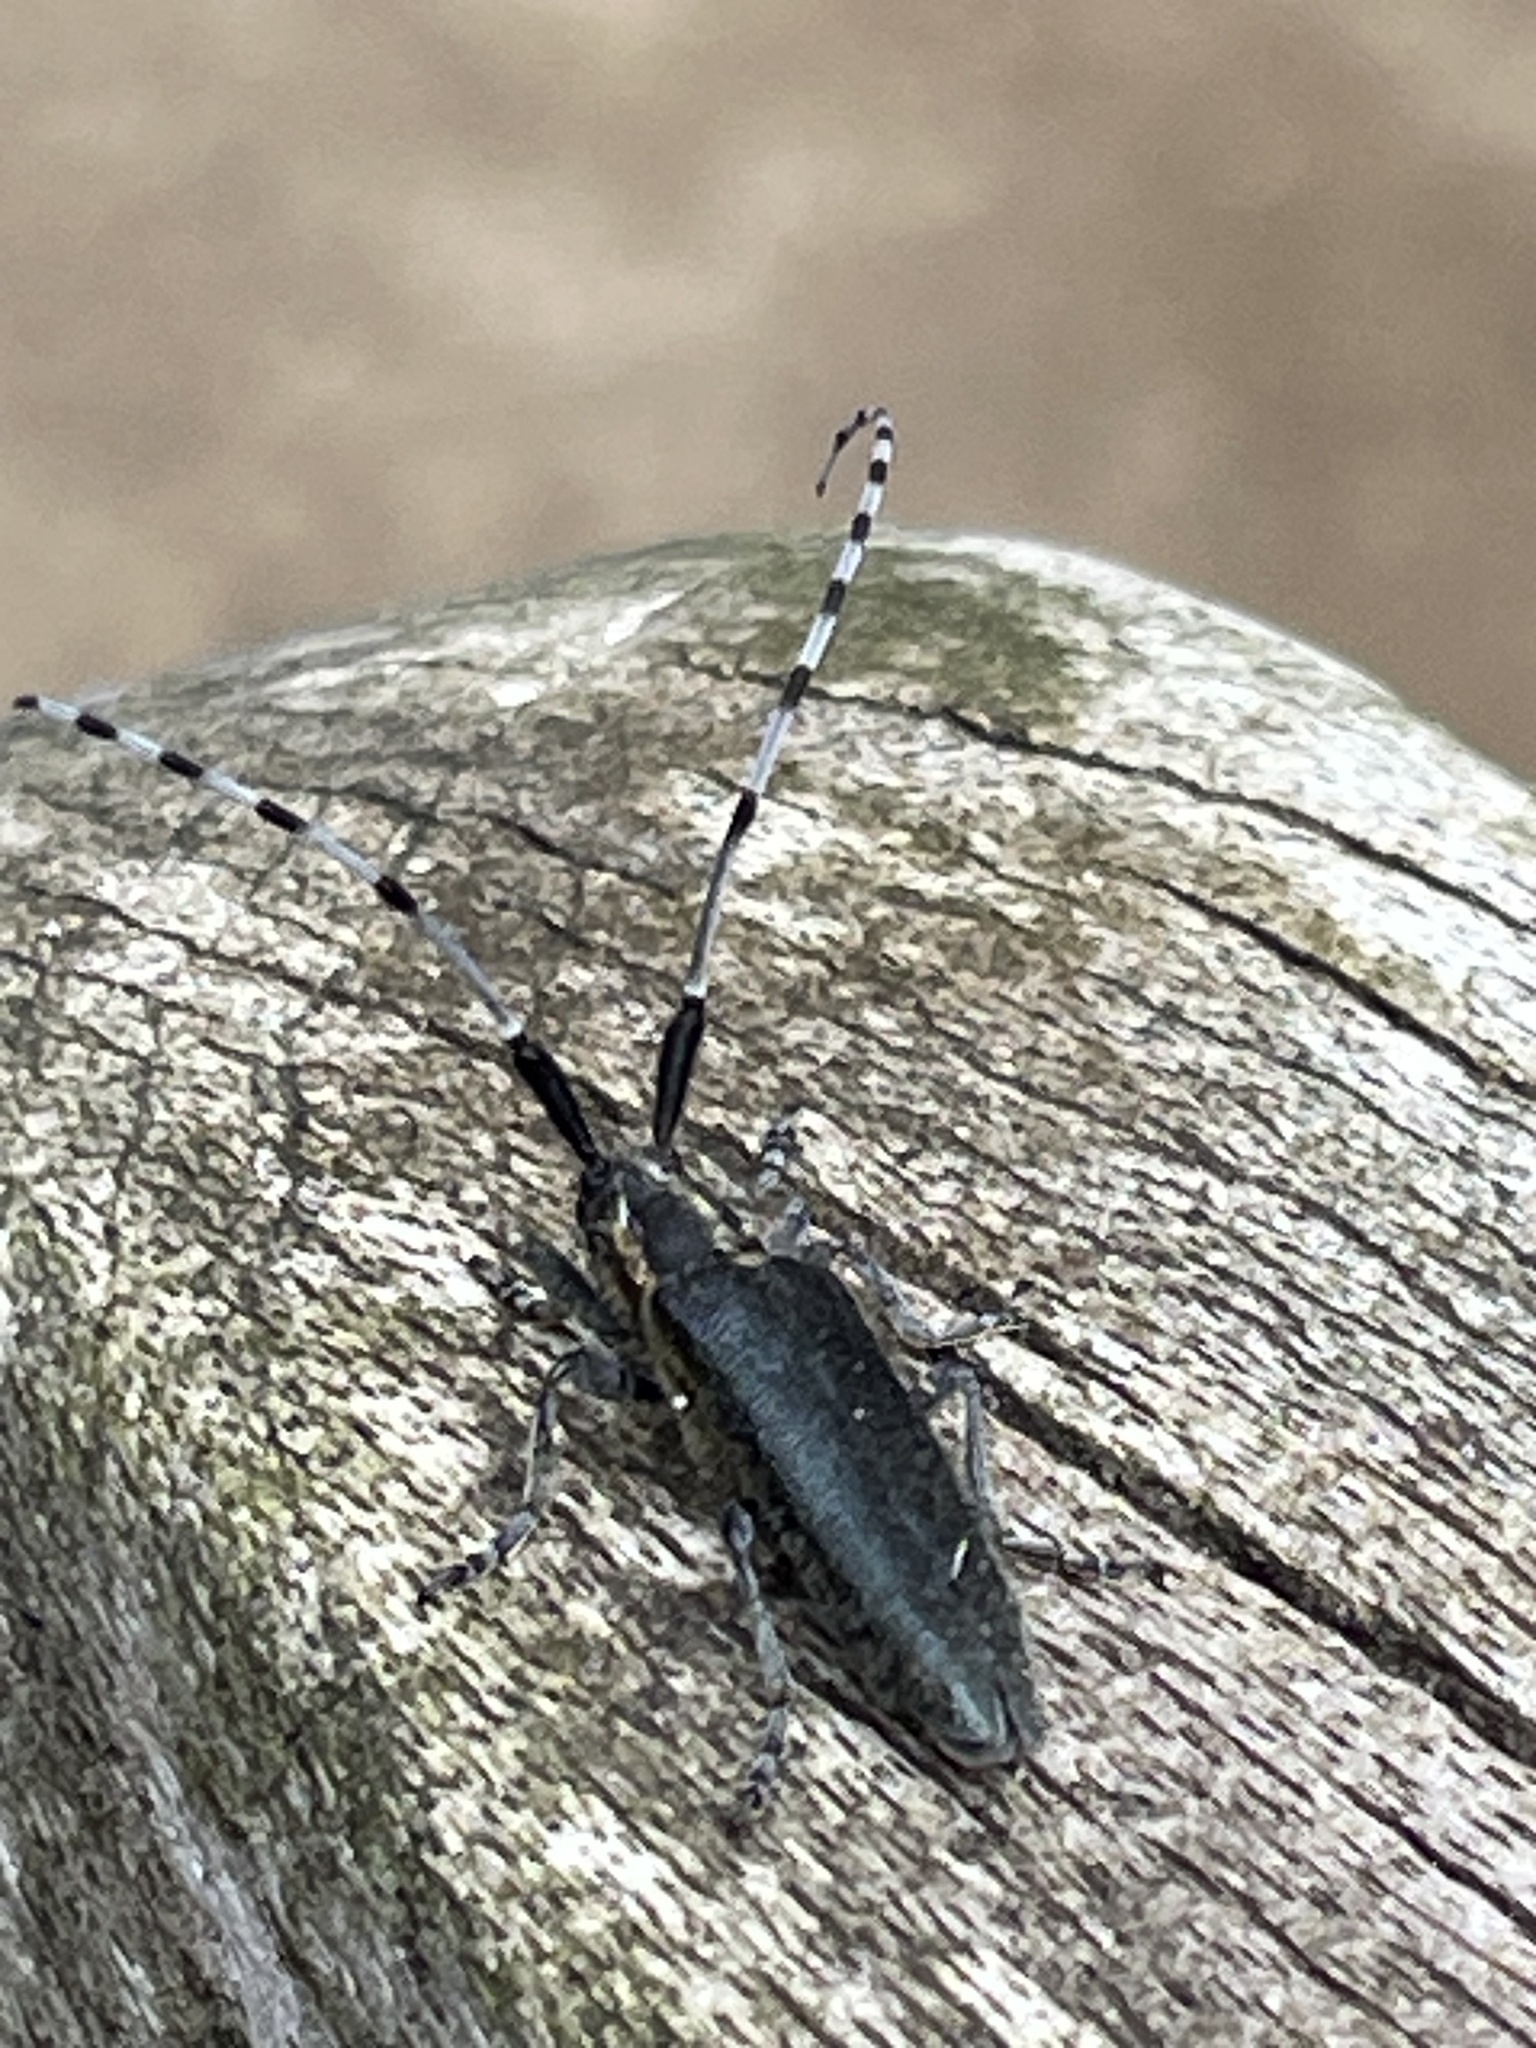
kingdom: Animalia
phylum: Arthropoda
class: Insecta
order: Coleoptera
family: Cerambycidae
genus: Agapanthia
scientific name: Agapanthia villosoviridescens
